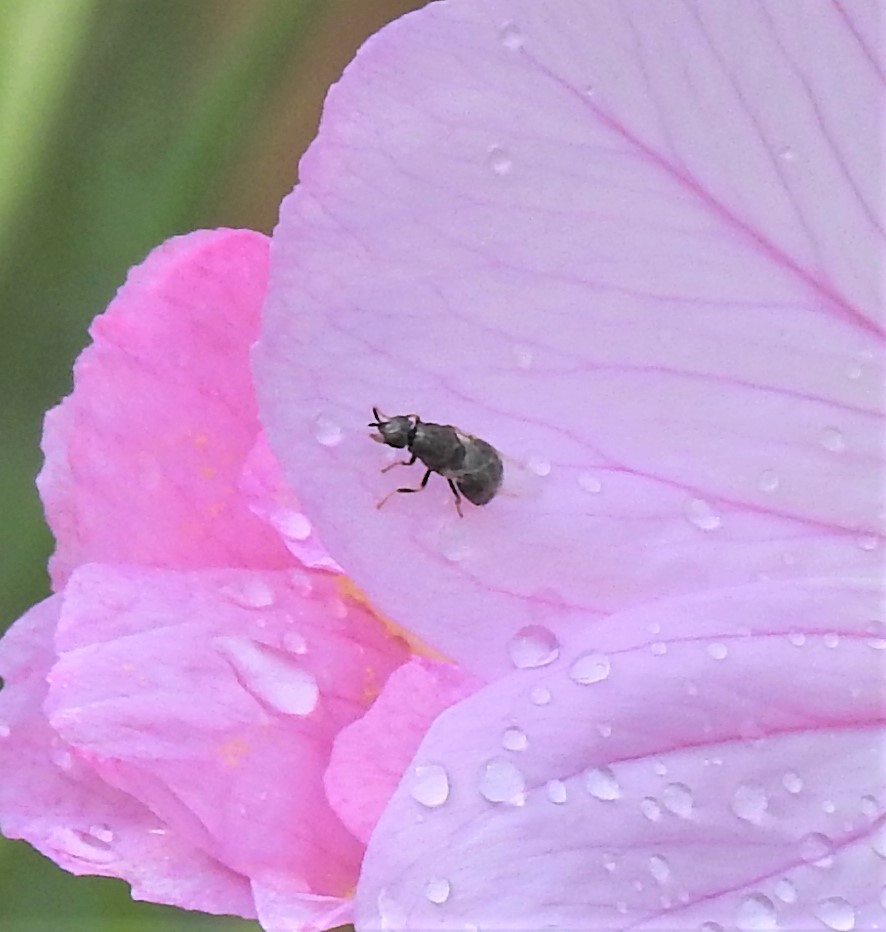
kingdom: Animalia
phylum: Arthropoda
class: Insecta
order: Diptera
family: Stratiomyidae
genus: Nemotelus
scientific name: Nemotelus bruesii
